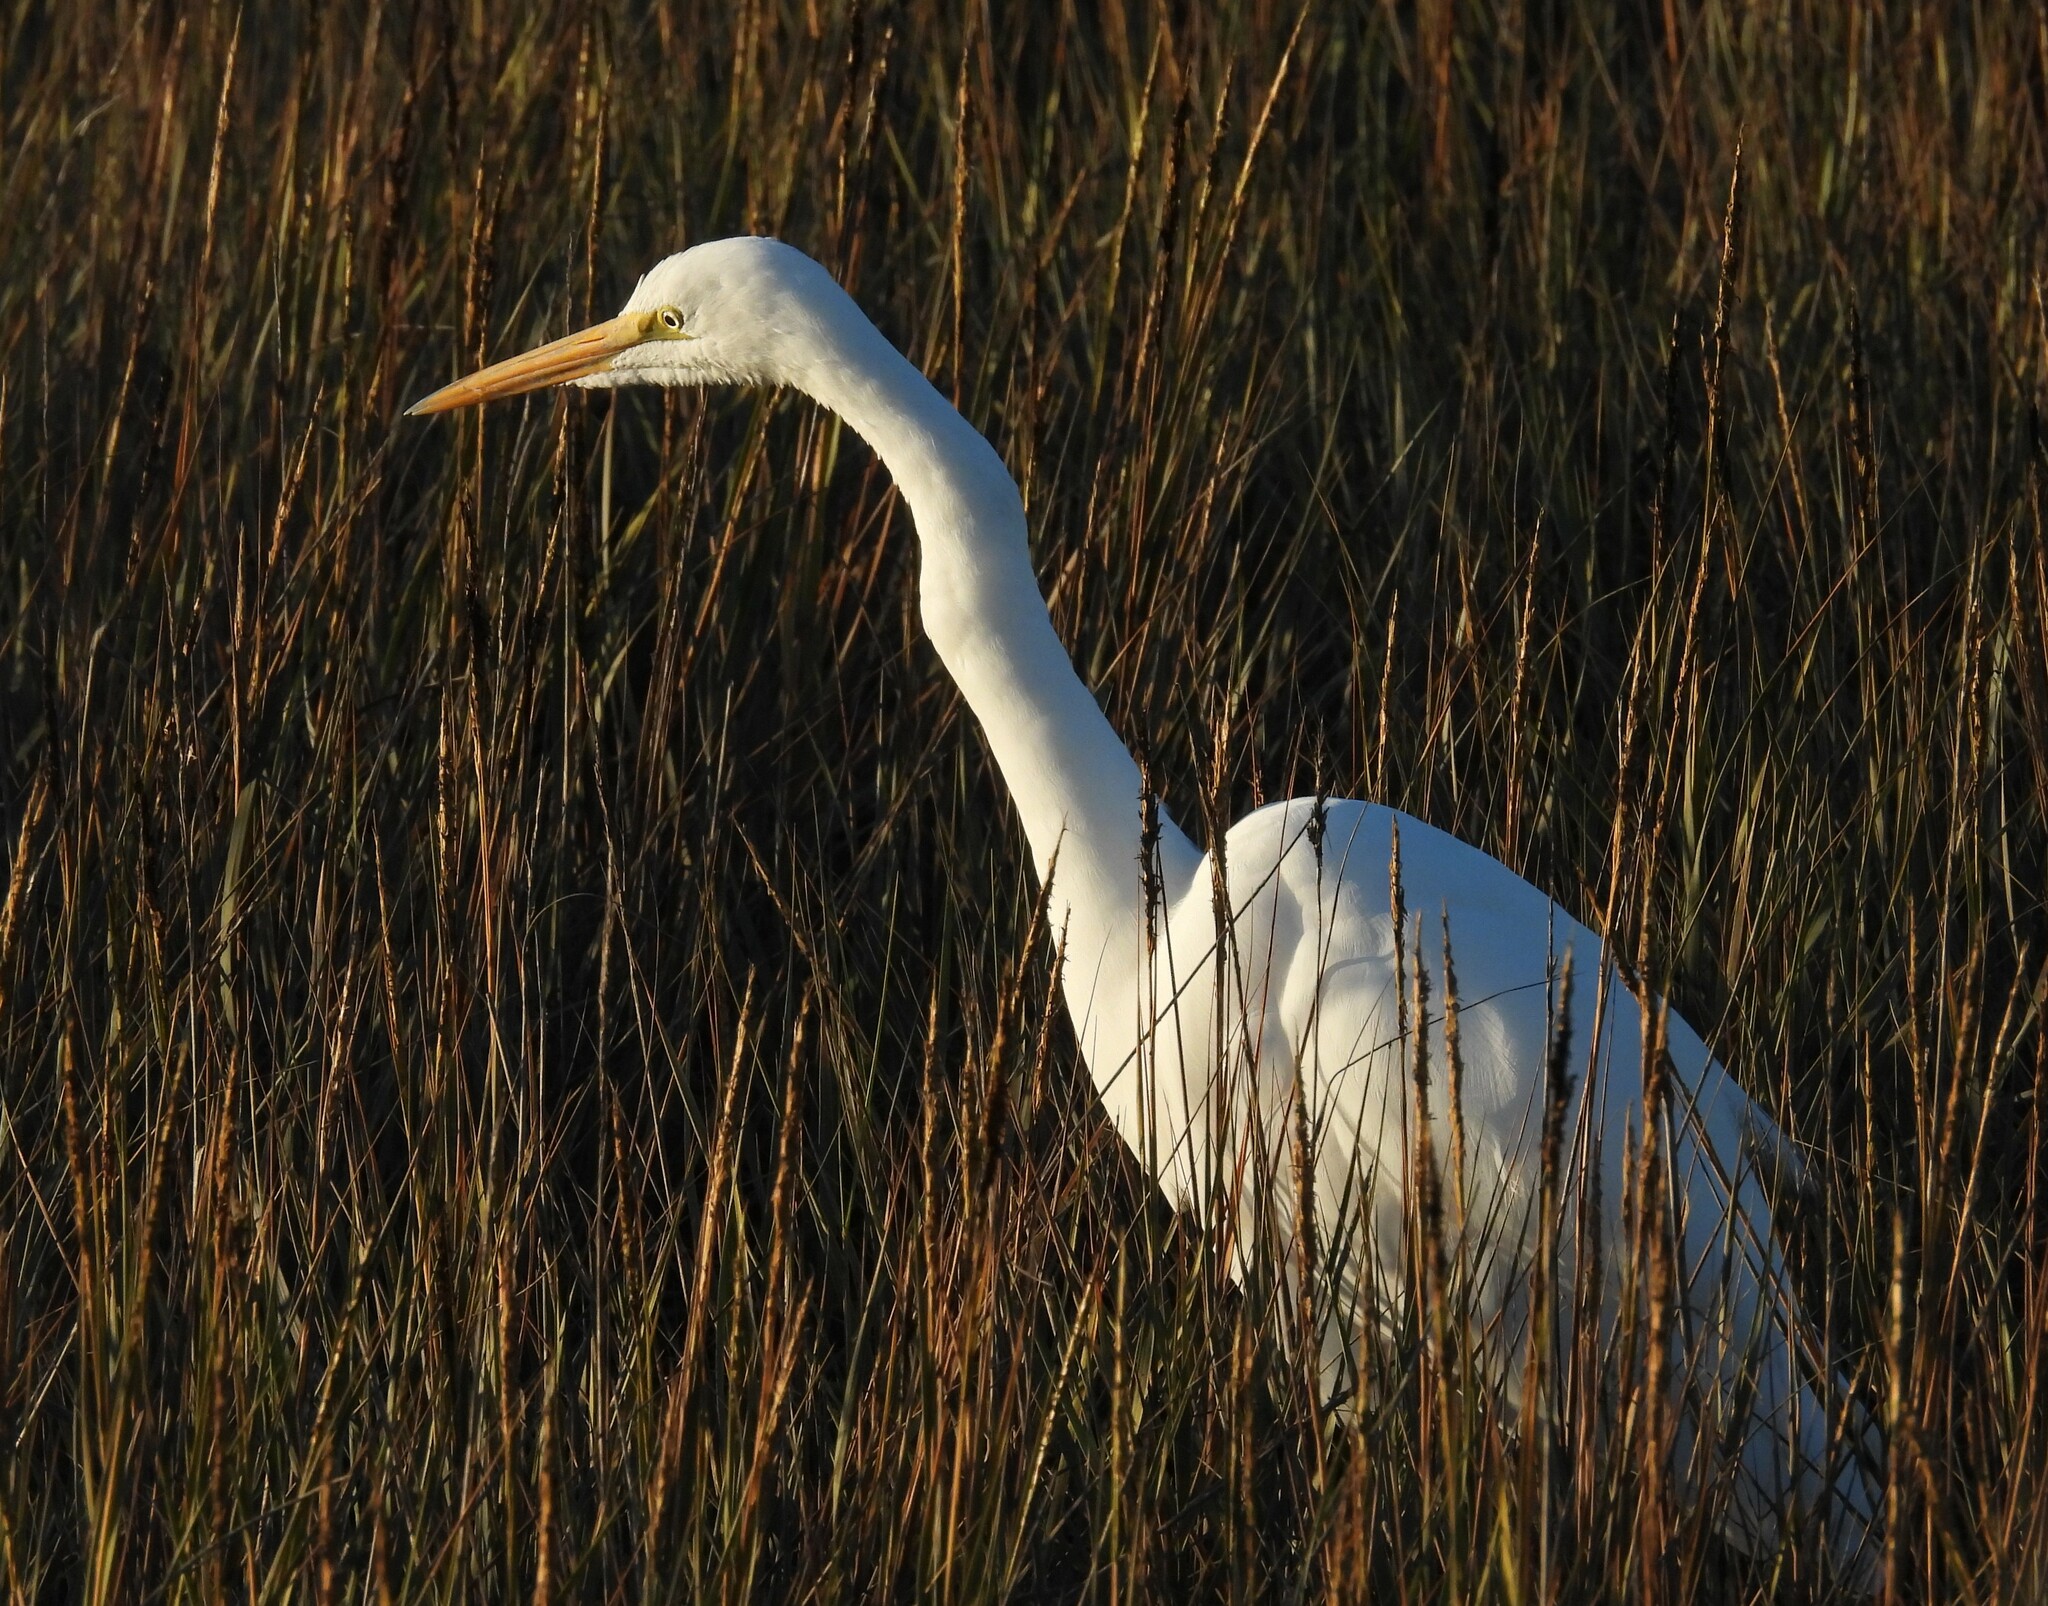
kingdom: Animalia
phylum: Chordata
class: Aves
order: Pelecaniformes
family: Ardeidae
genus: Ardea
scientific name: Ardea alba
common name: Great egret
